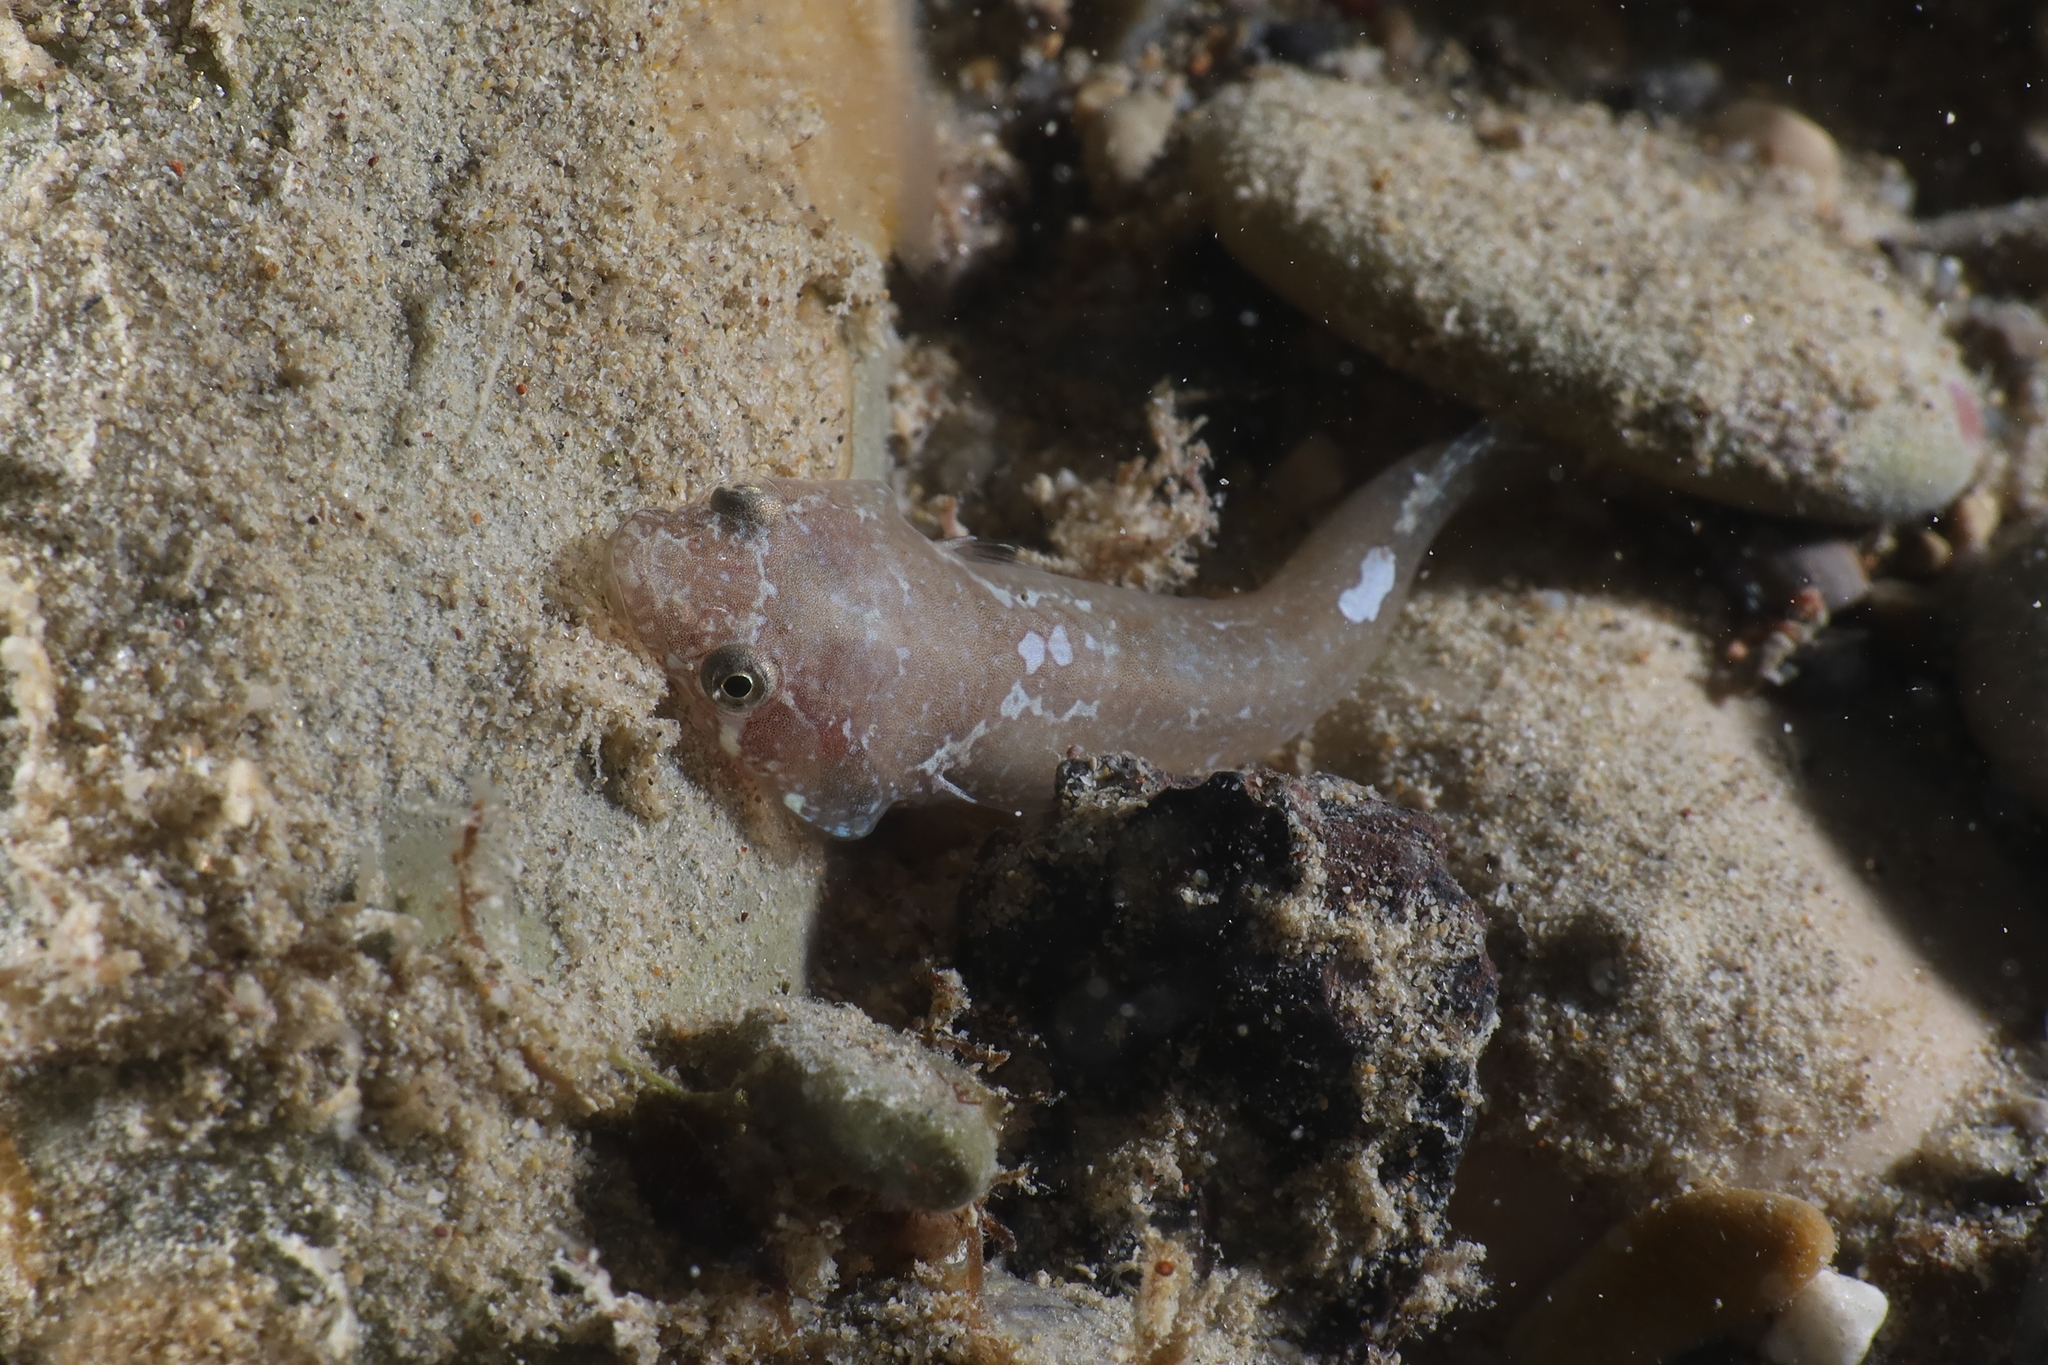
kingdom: Animalia
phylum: Chordata
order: Gobiesociformes
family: Gobiesocidae
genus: Diplecogaster
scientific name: Diplecogaster bimaculata
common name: Two-spotted clingfish
